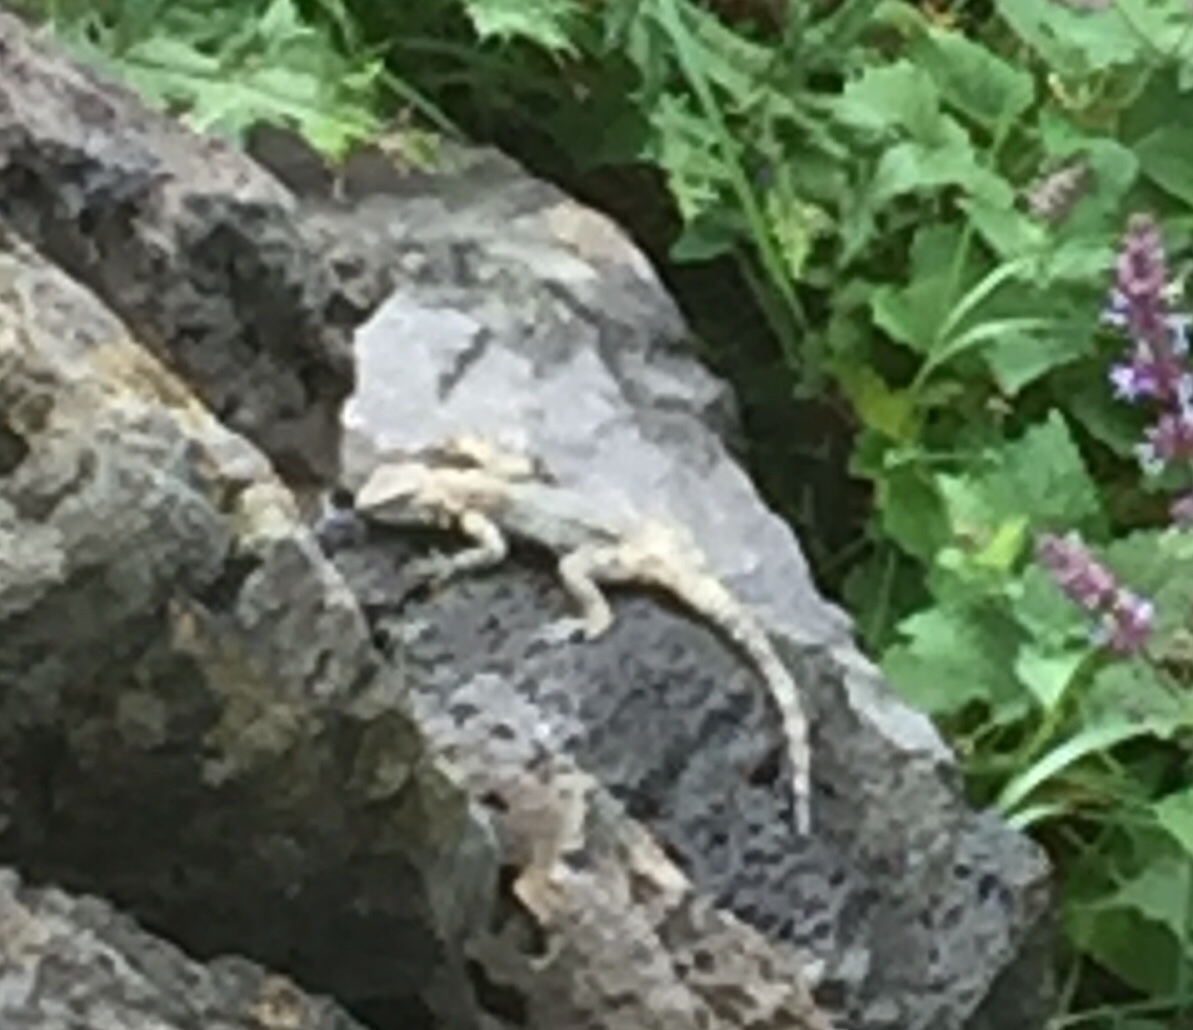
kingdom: Animalia
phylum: Chordata
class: Squamata
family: Agamidae
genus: Paralaudakia
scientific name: Paralaudakia caucasia
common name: Caucasian agama
